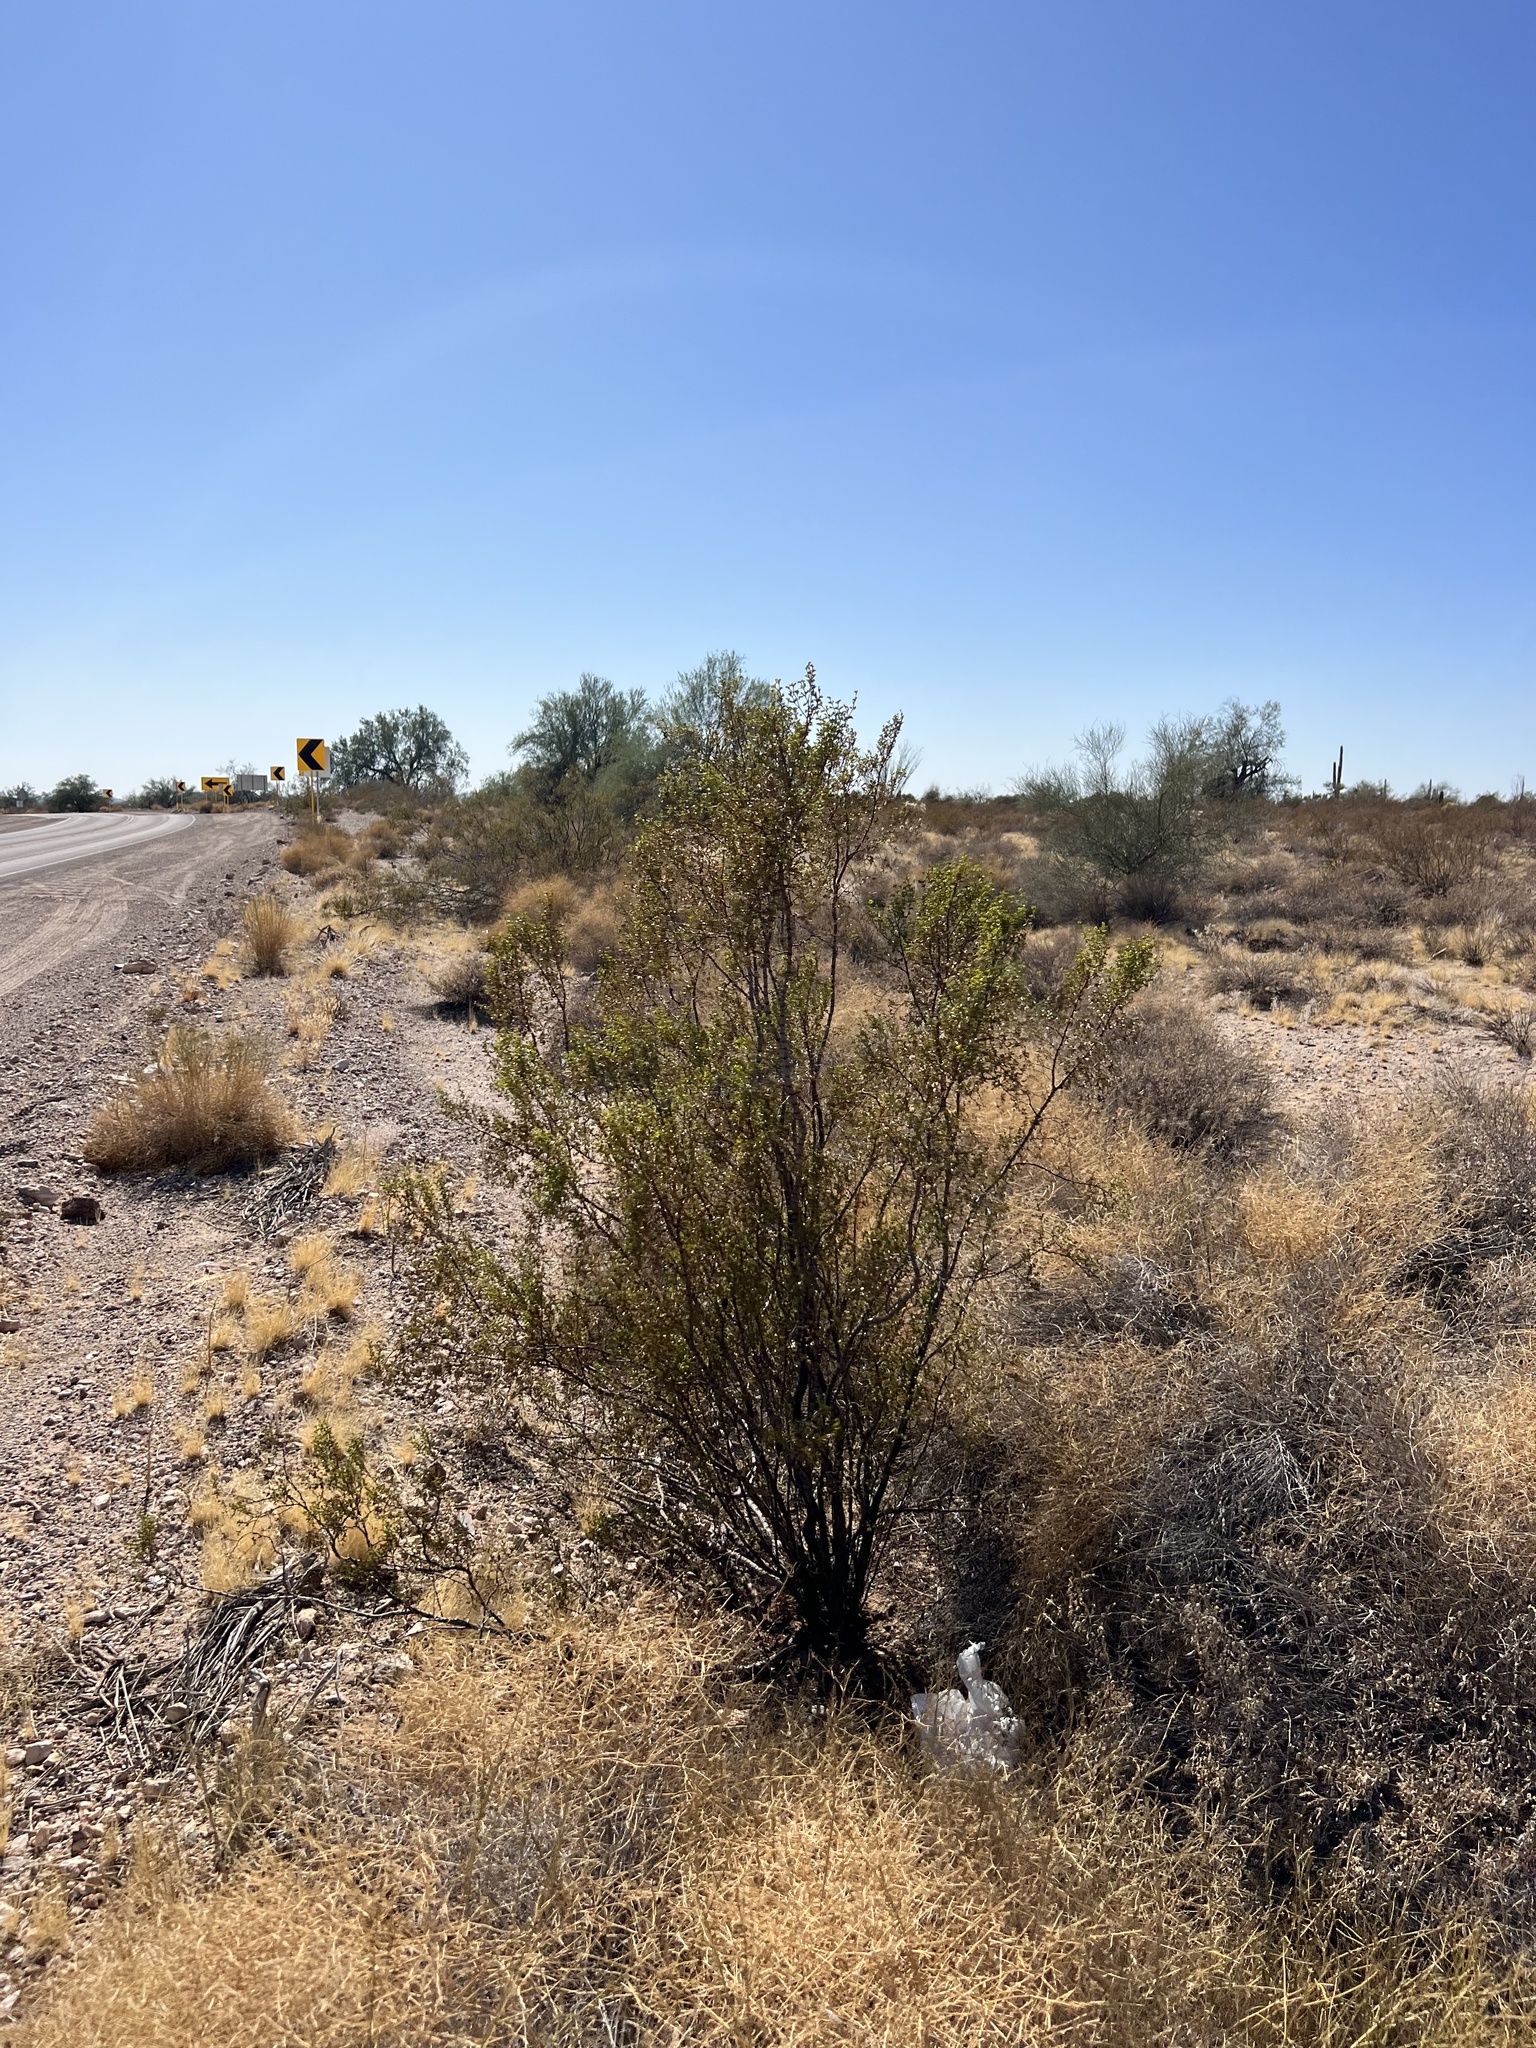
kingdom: Plantae
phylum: Tracheophyta
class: Magnoliopsida
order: Zygophyllales
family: Zygophyllaceae
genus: Larrea
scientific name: Larrea tridentata
